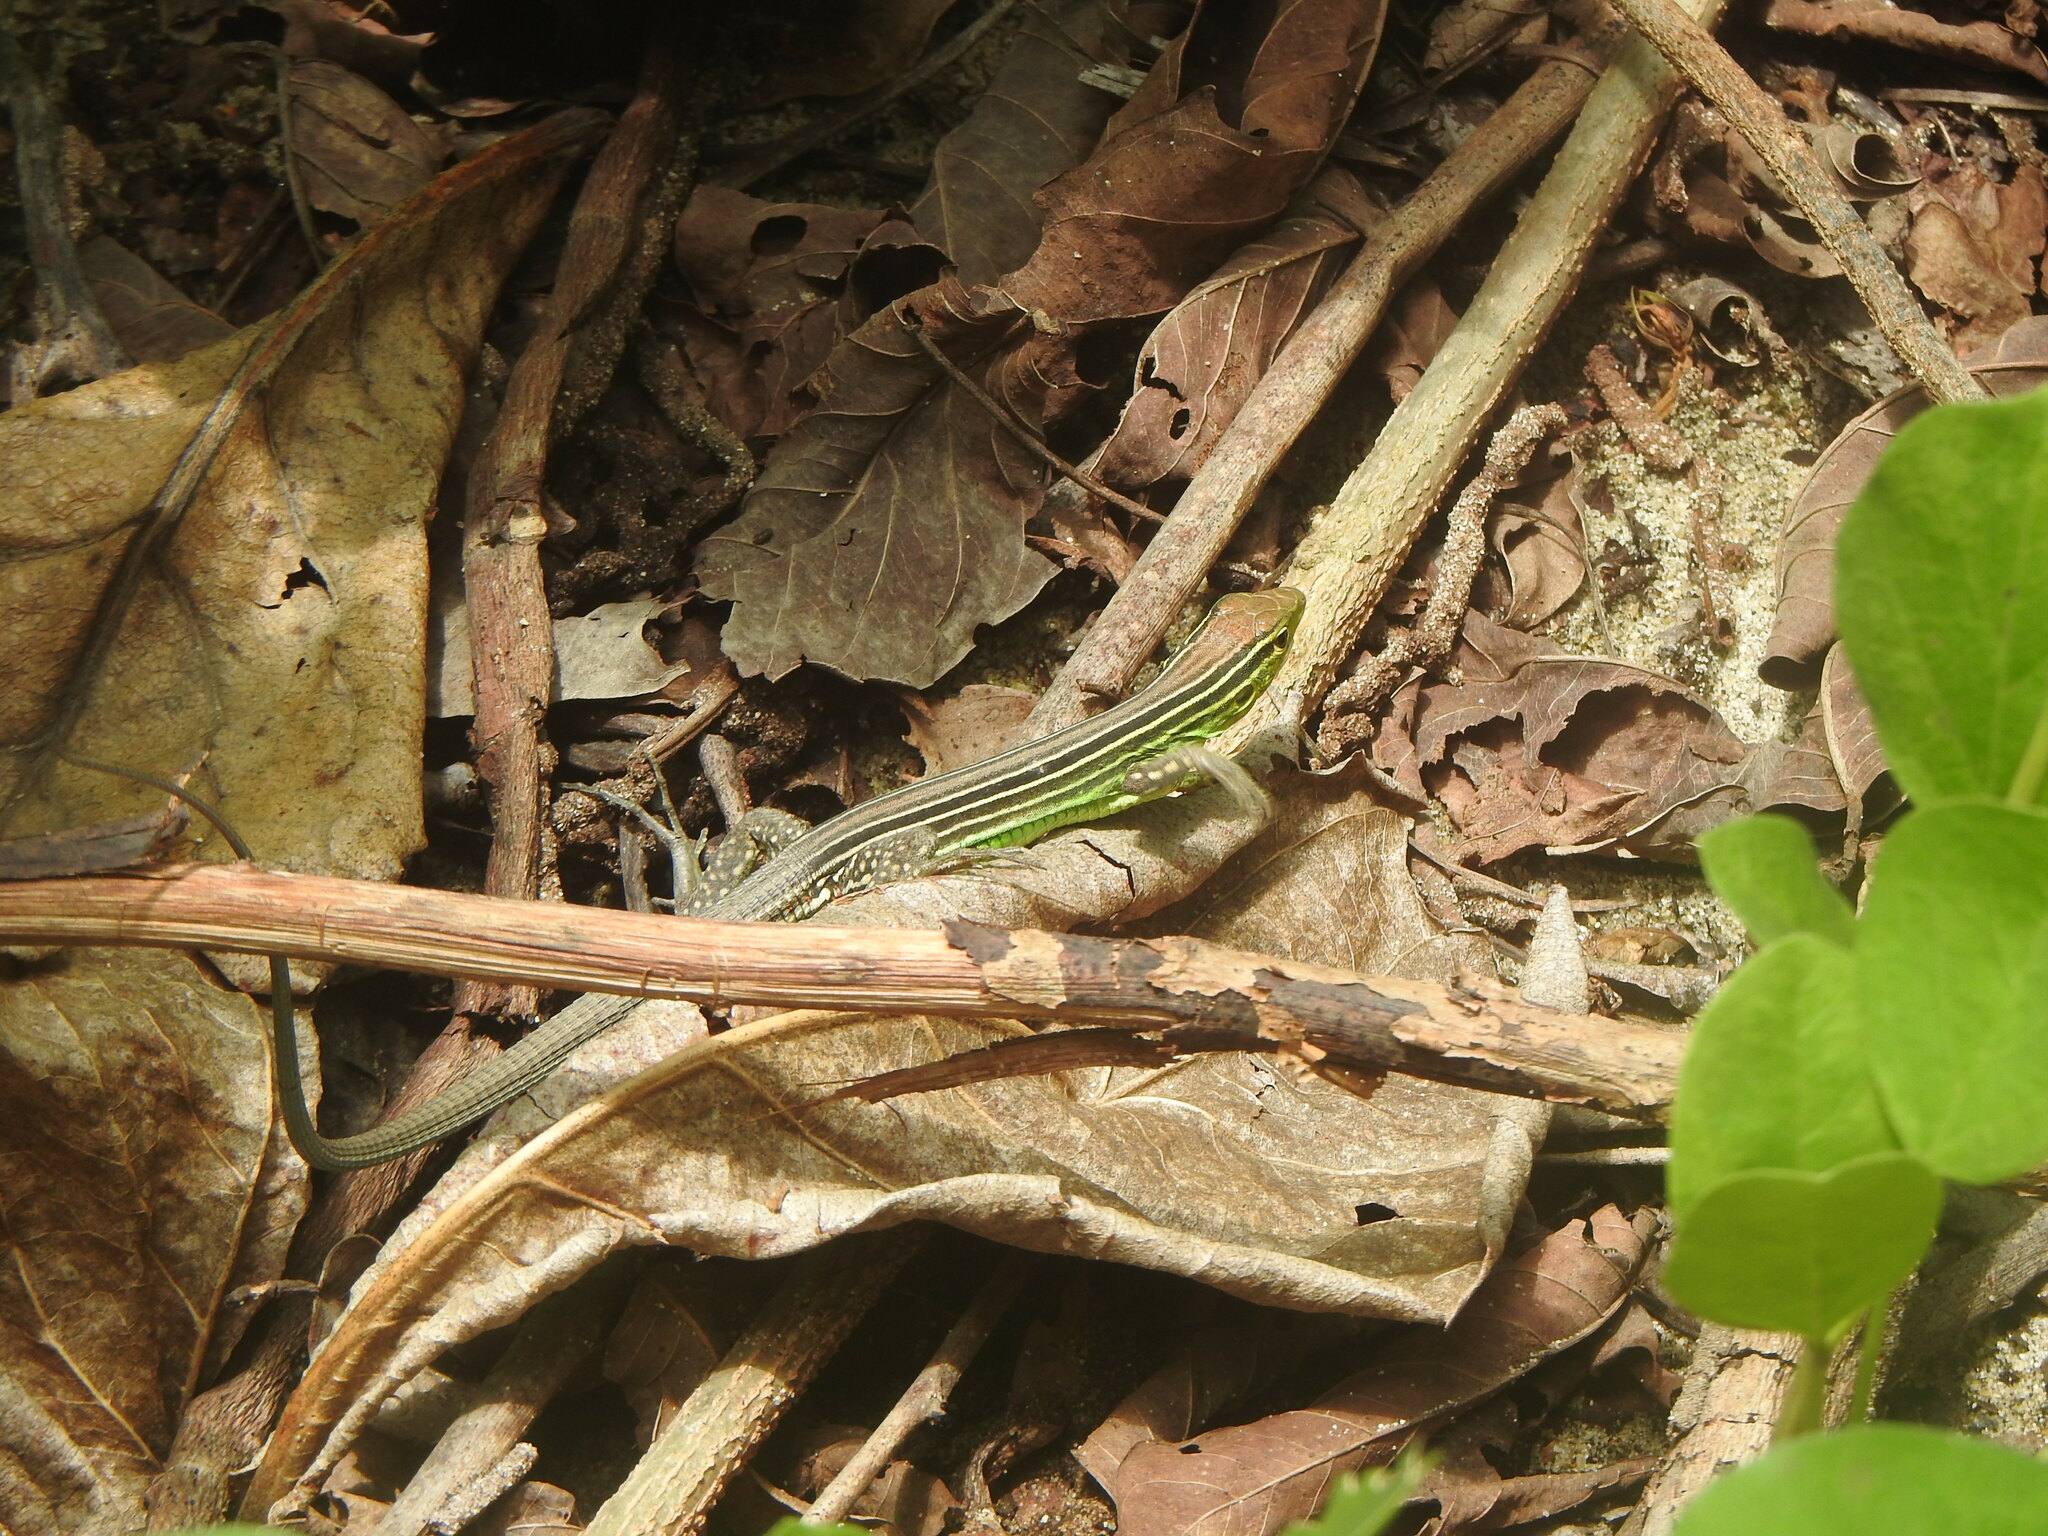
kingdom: Animalia
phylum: Chordata
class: Squamata
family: Teiidae
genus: Cnemidophorus
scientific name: Cnemidophorus gaigei
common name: Gaige’s rainbow lizard
